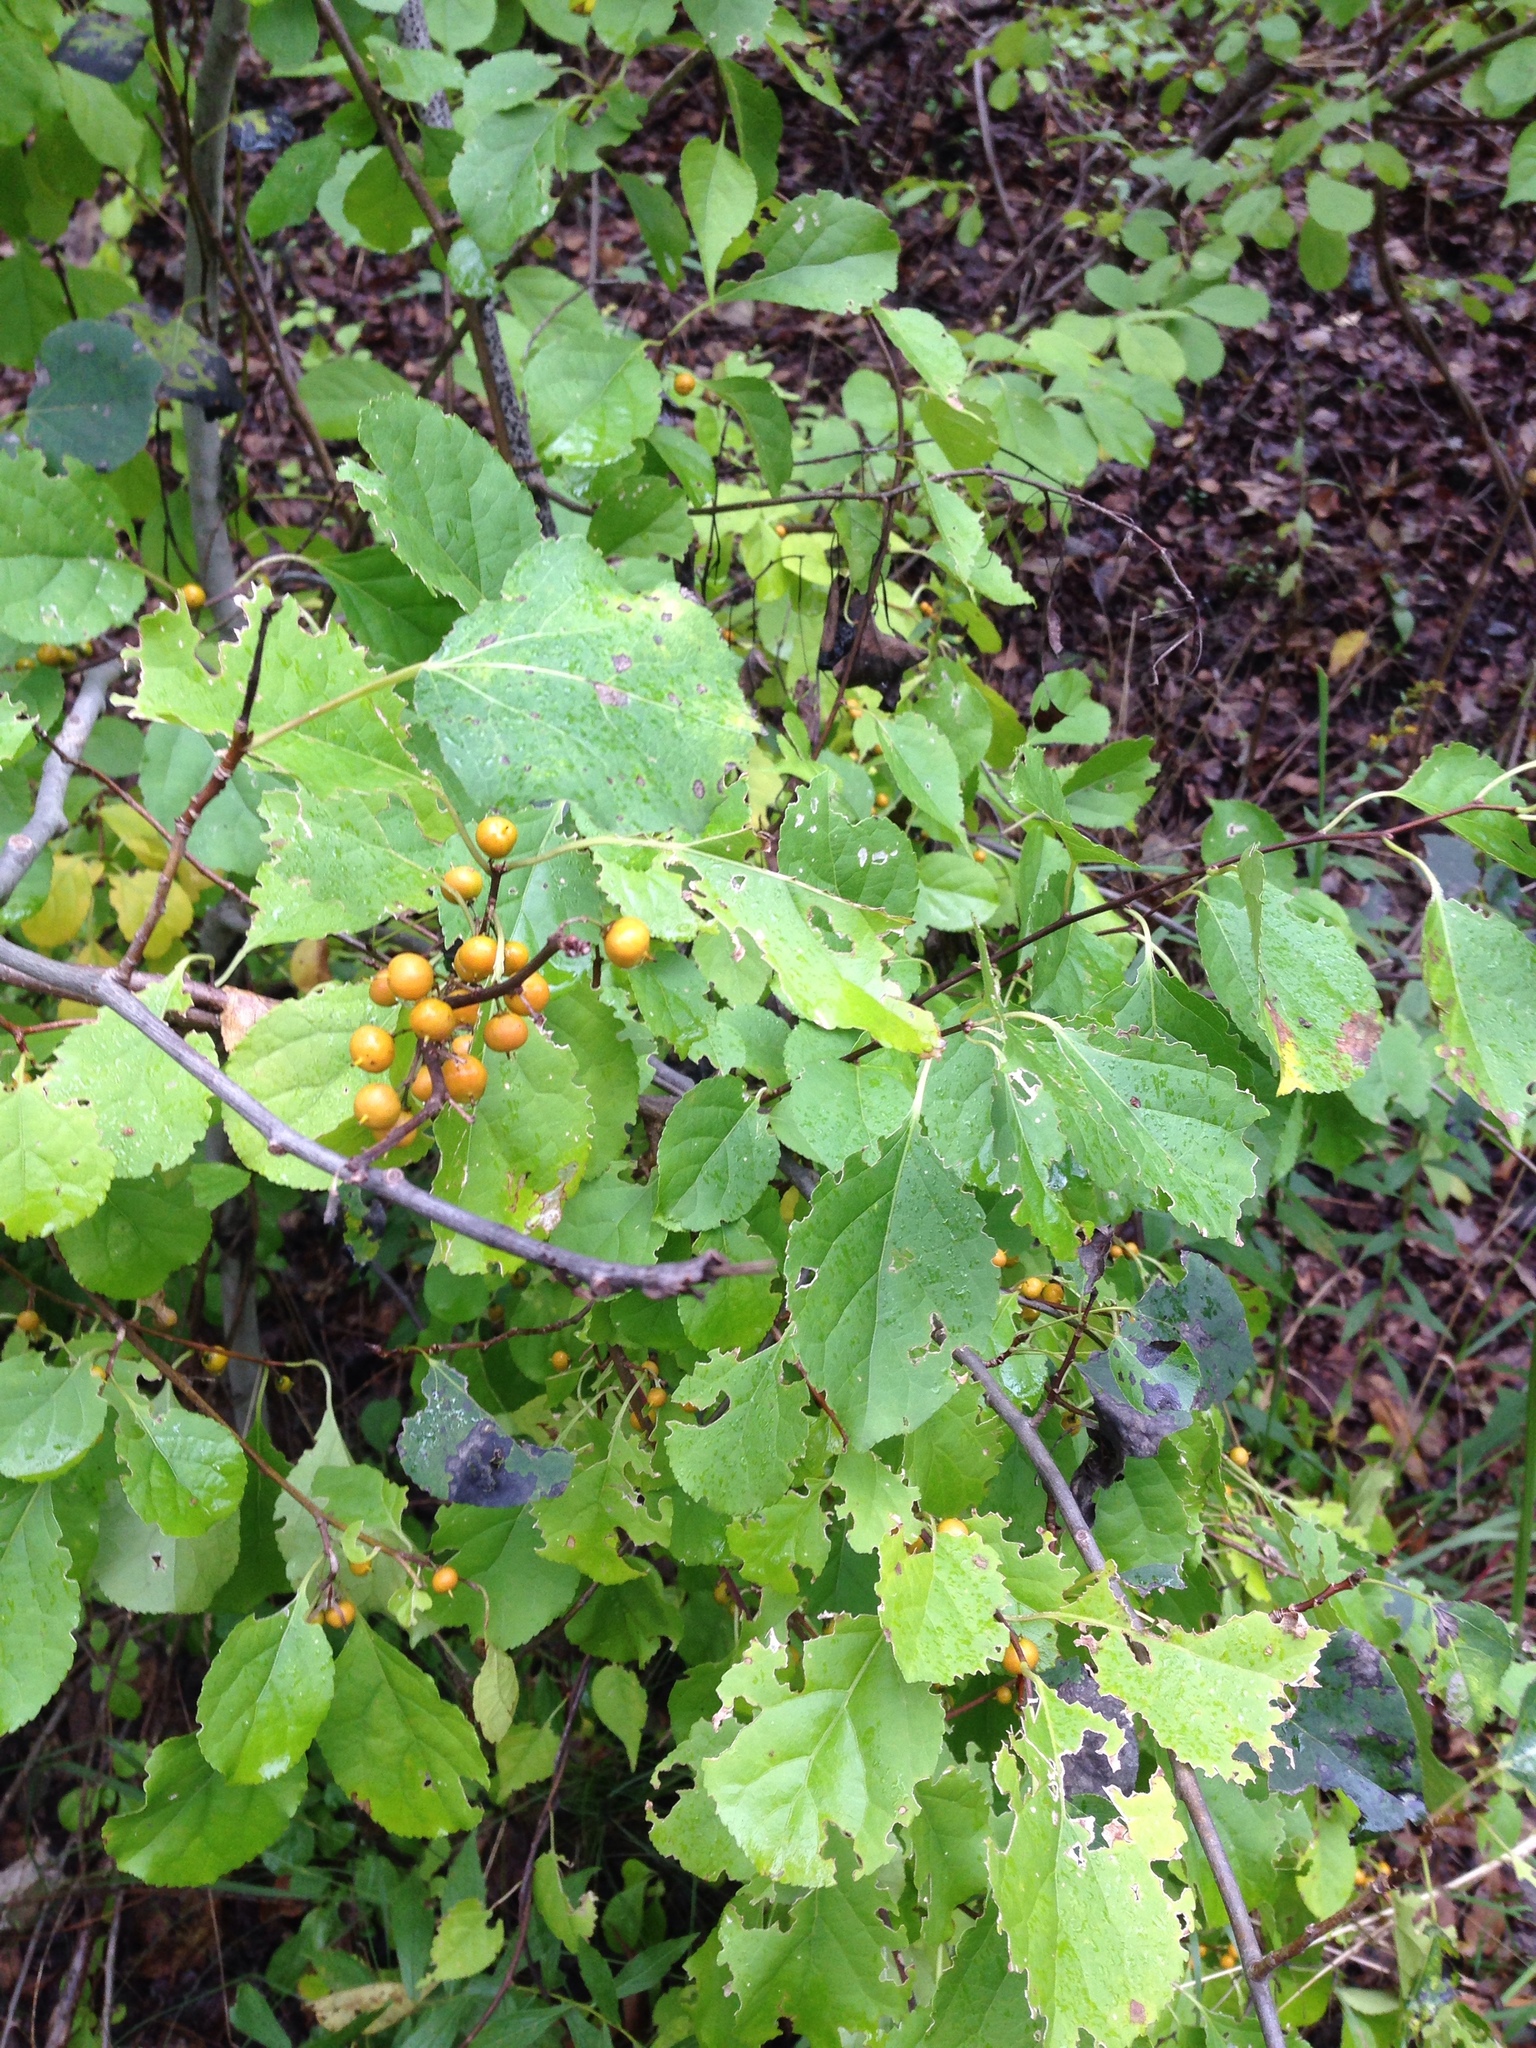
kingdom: Plantae
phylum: Tracheophyta
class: Magnoliopsida
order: Celastrales
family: Celastraceae
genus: Celastrus
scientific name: Celastrus orbiculatus
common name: Oriental bittersweet
